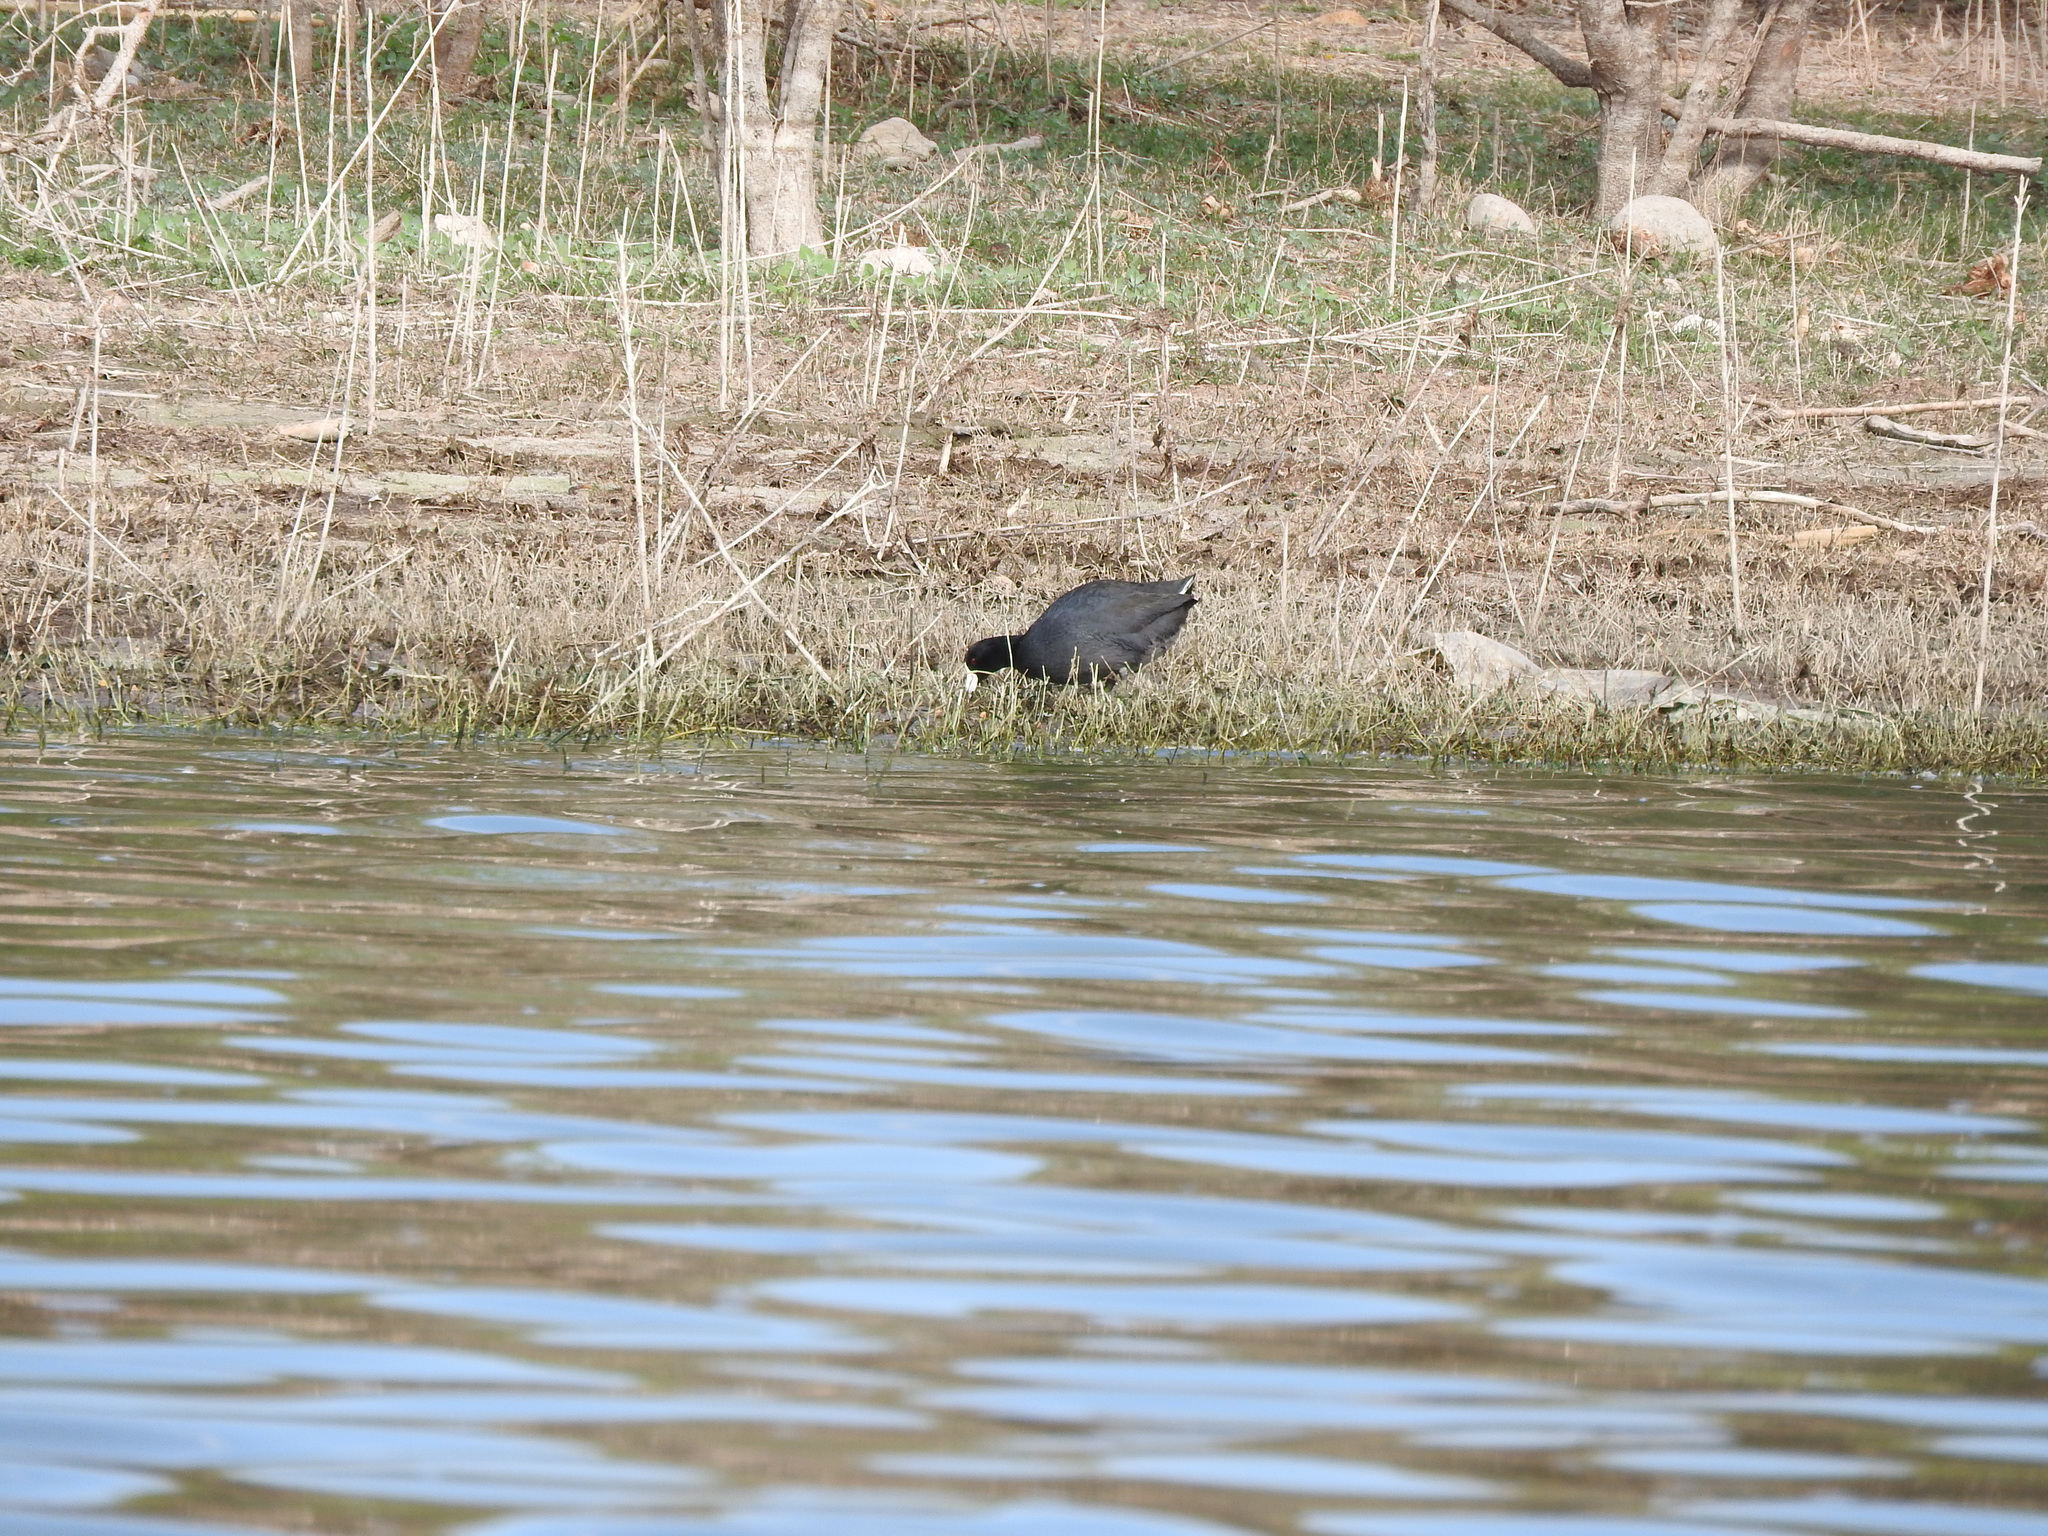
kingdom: Animalia
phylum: Chordata
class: Aves
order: Gruiformes
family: Rallidae
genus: Fulica
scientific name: Fulica americana
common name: American coot
